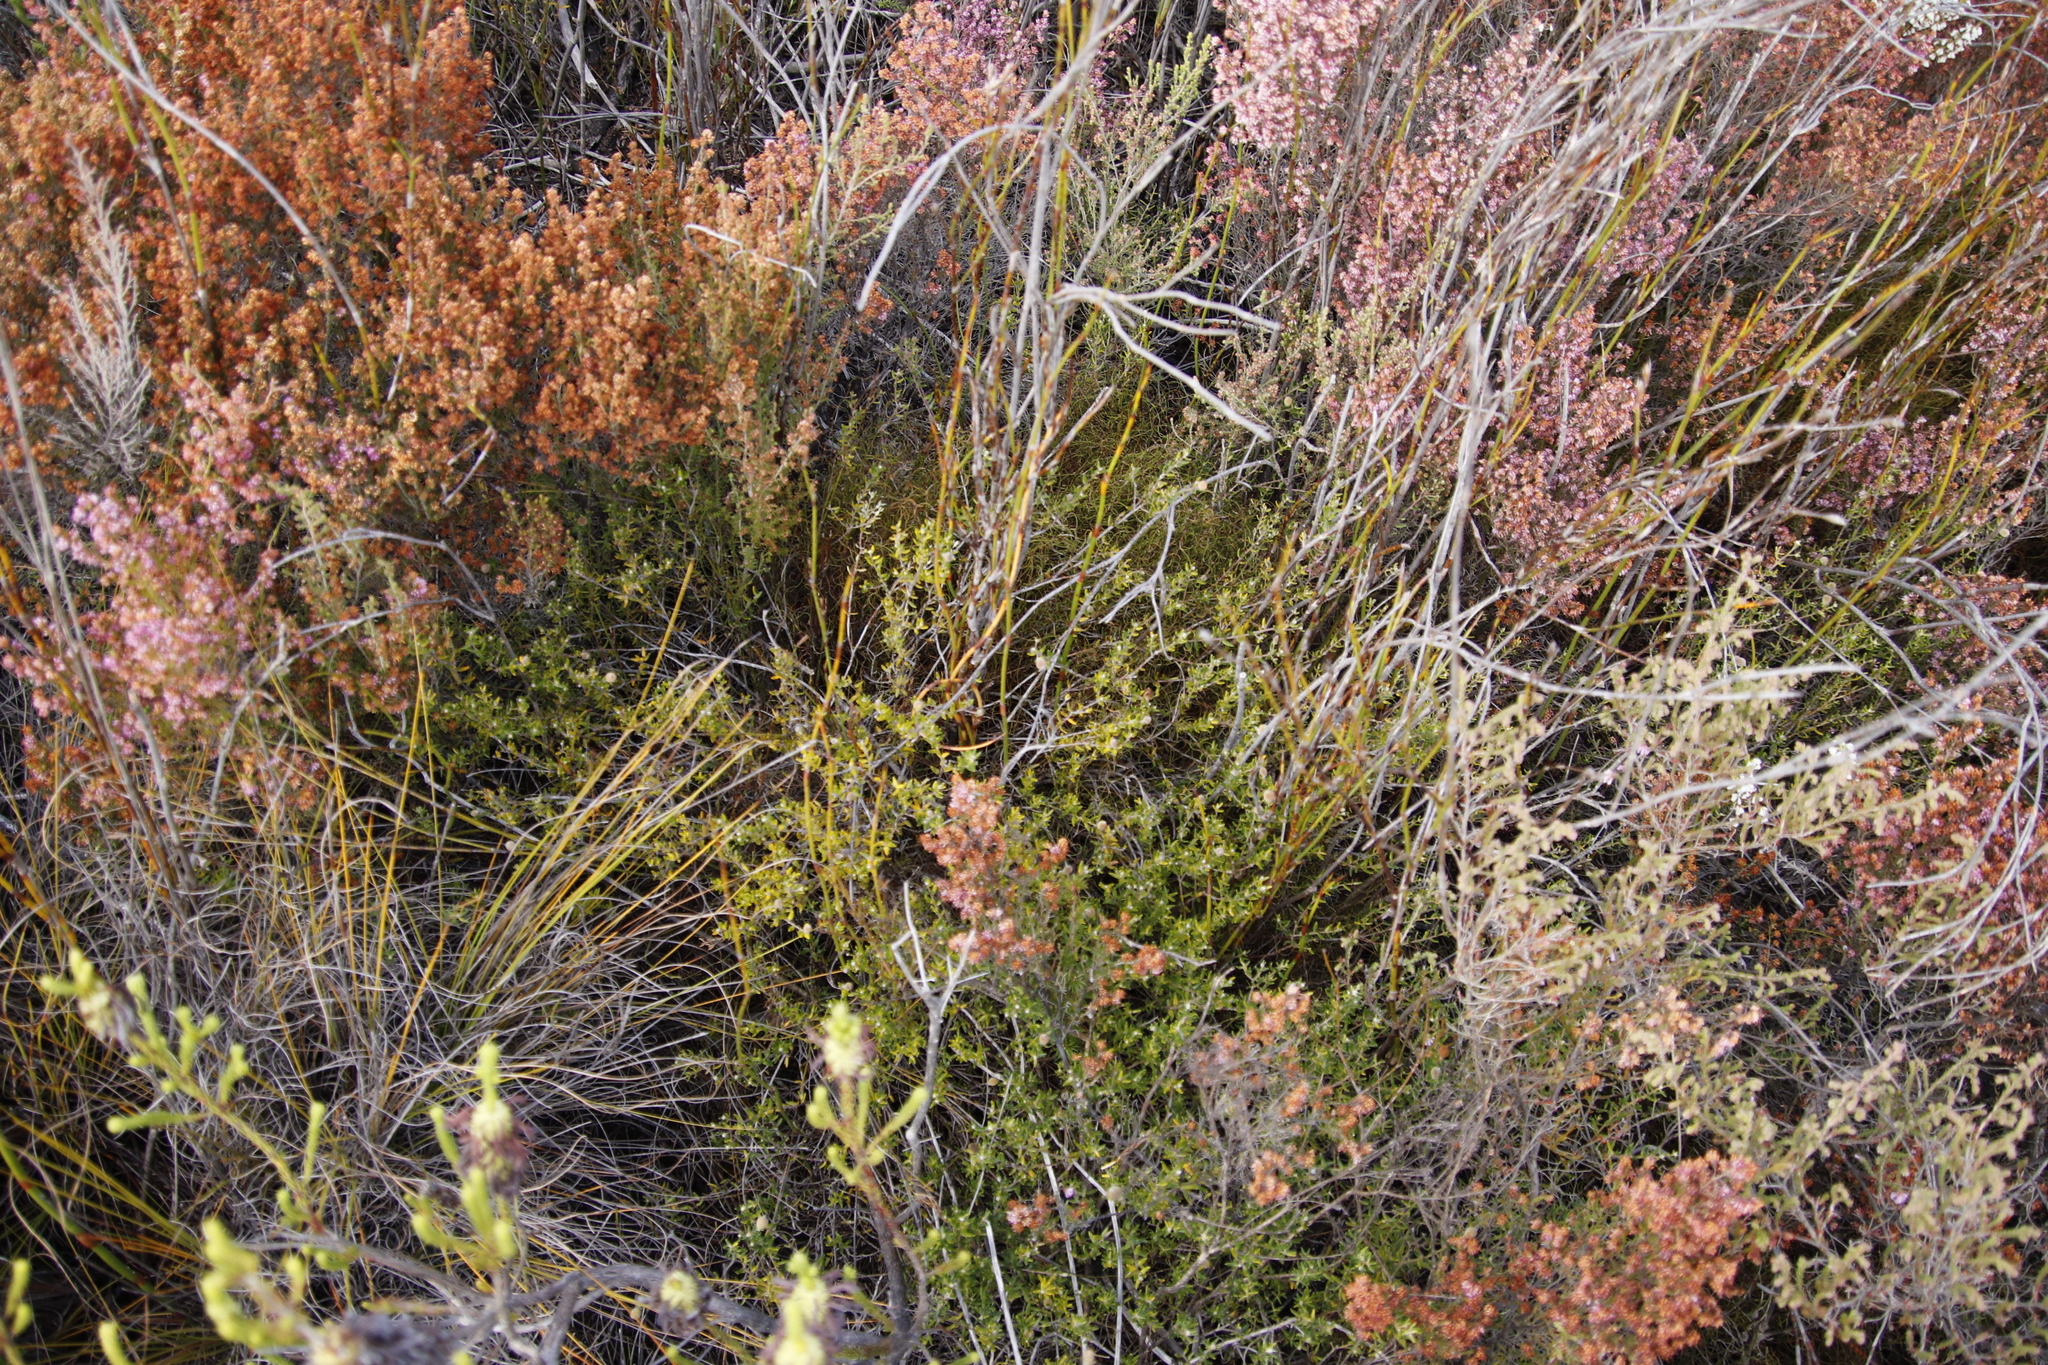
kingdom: Plantae
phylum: Tracheophyta
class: Magnoliopsida
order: Rosales
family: Rhamnaceae
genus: Phylica
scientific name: Phylica lasiocarpa
